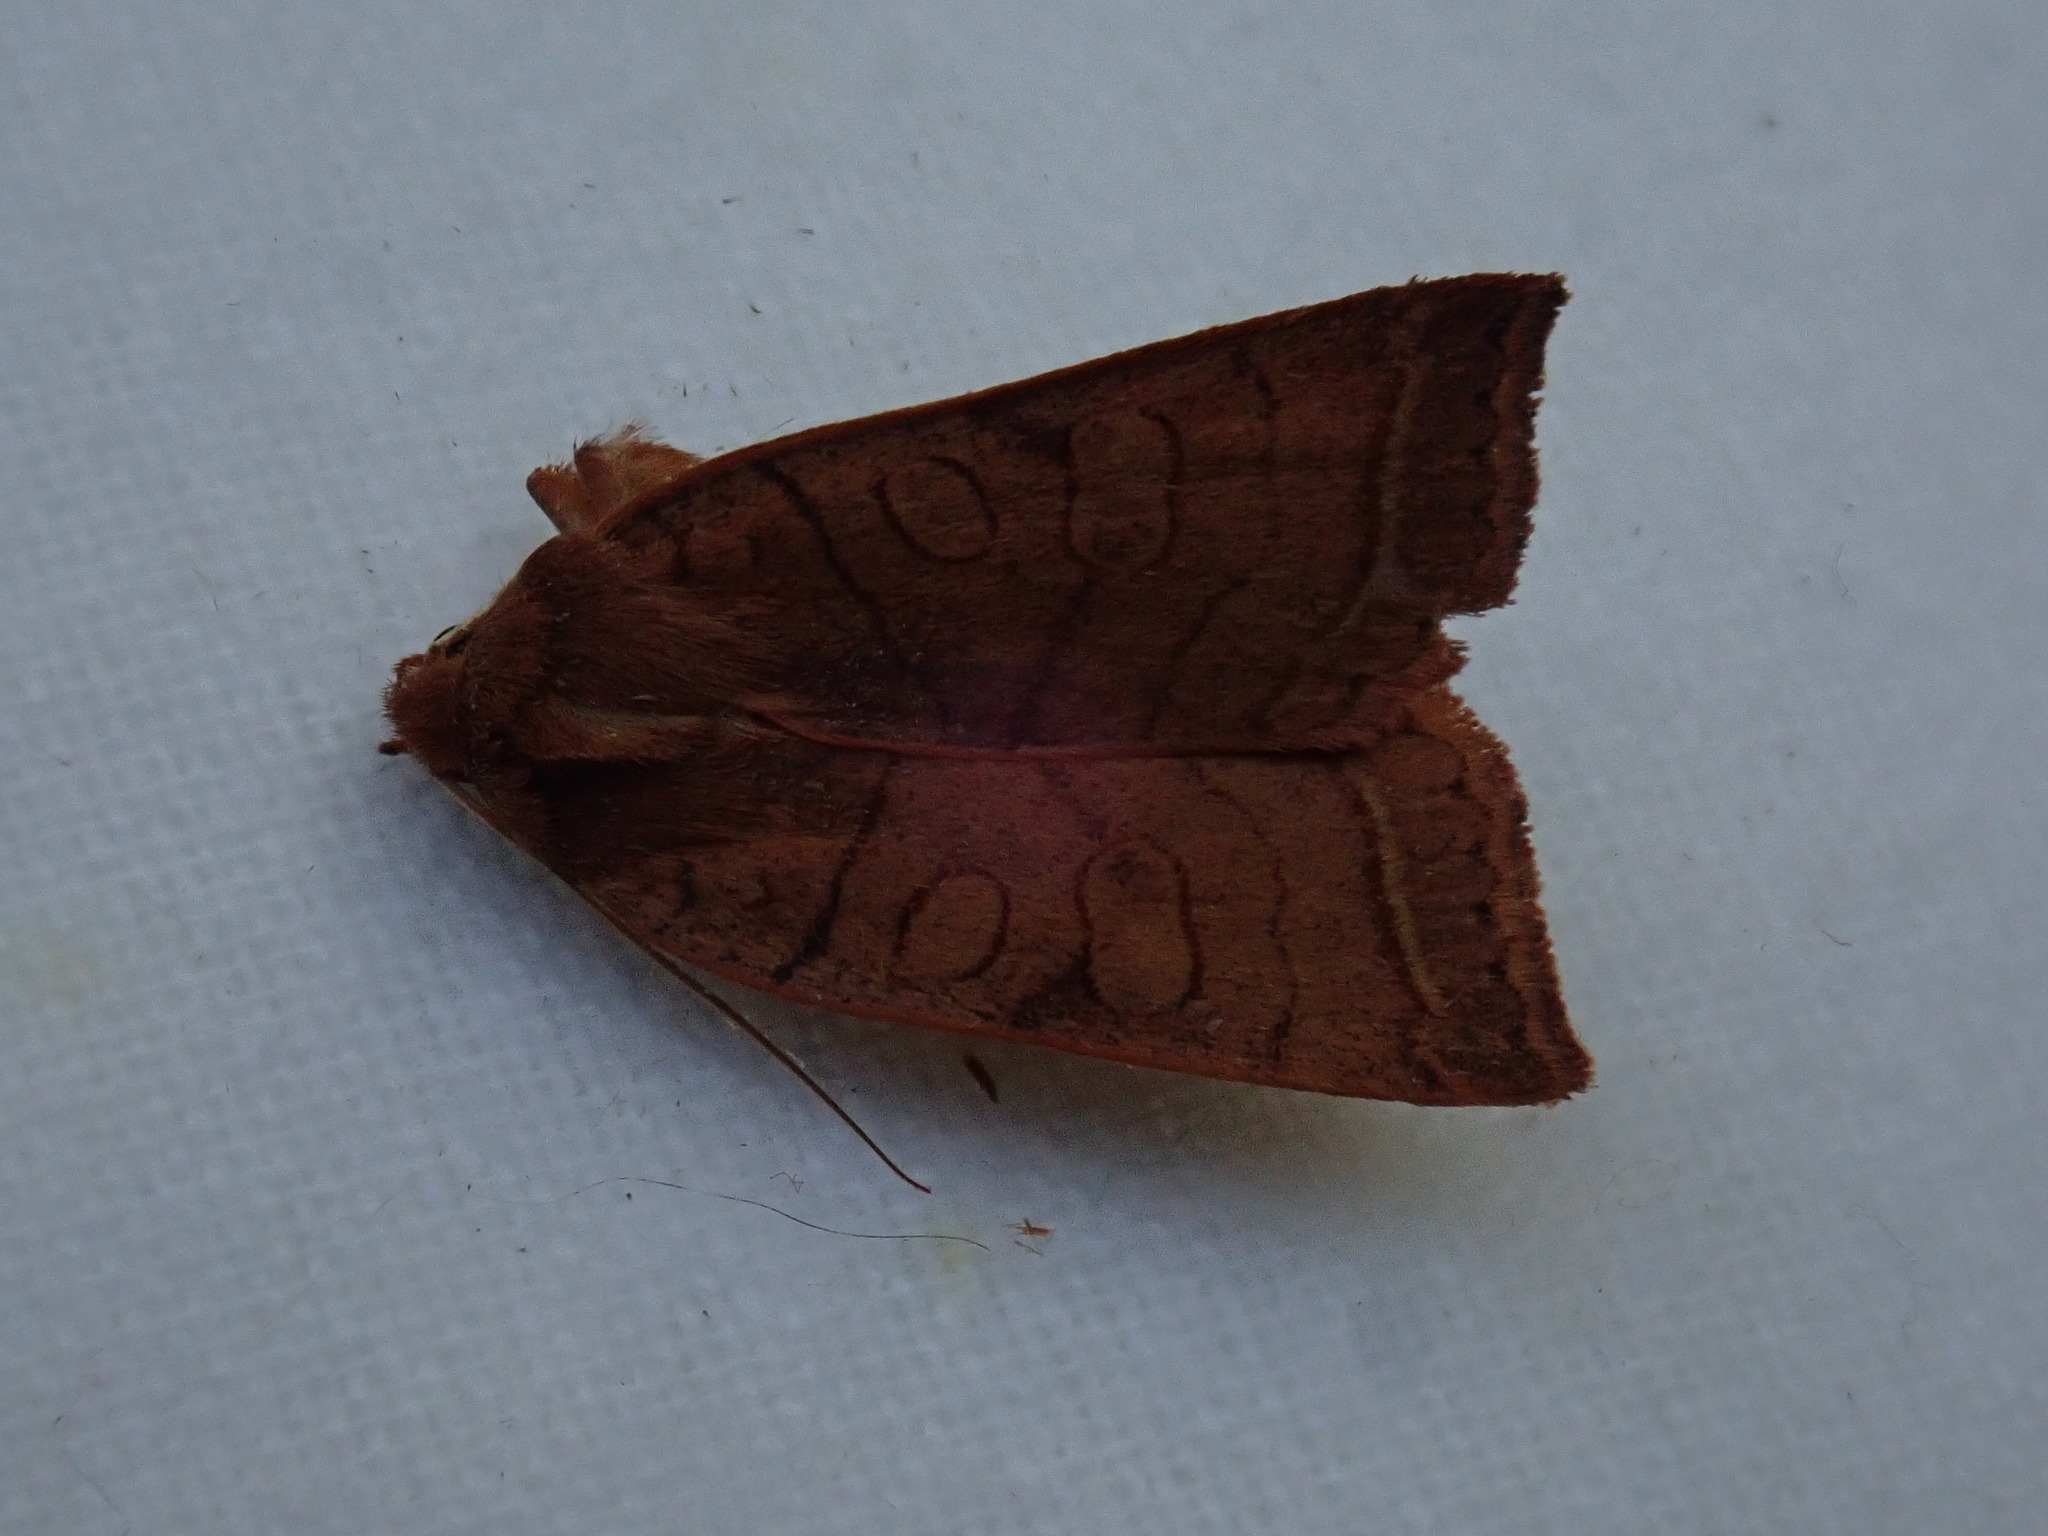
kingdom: Animalia
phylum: Arthropoda
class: Insecta
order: Lepidoptera
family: Noctuidae
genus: Epiglaea
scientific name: Epiglaea apiata
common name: Pointed sallow
